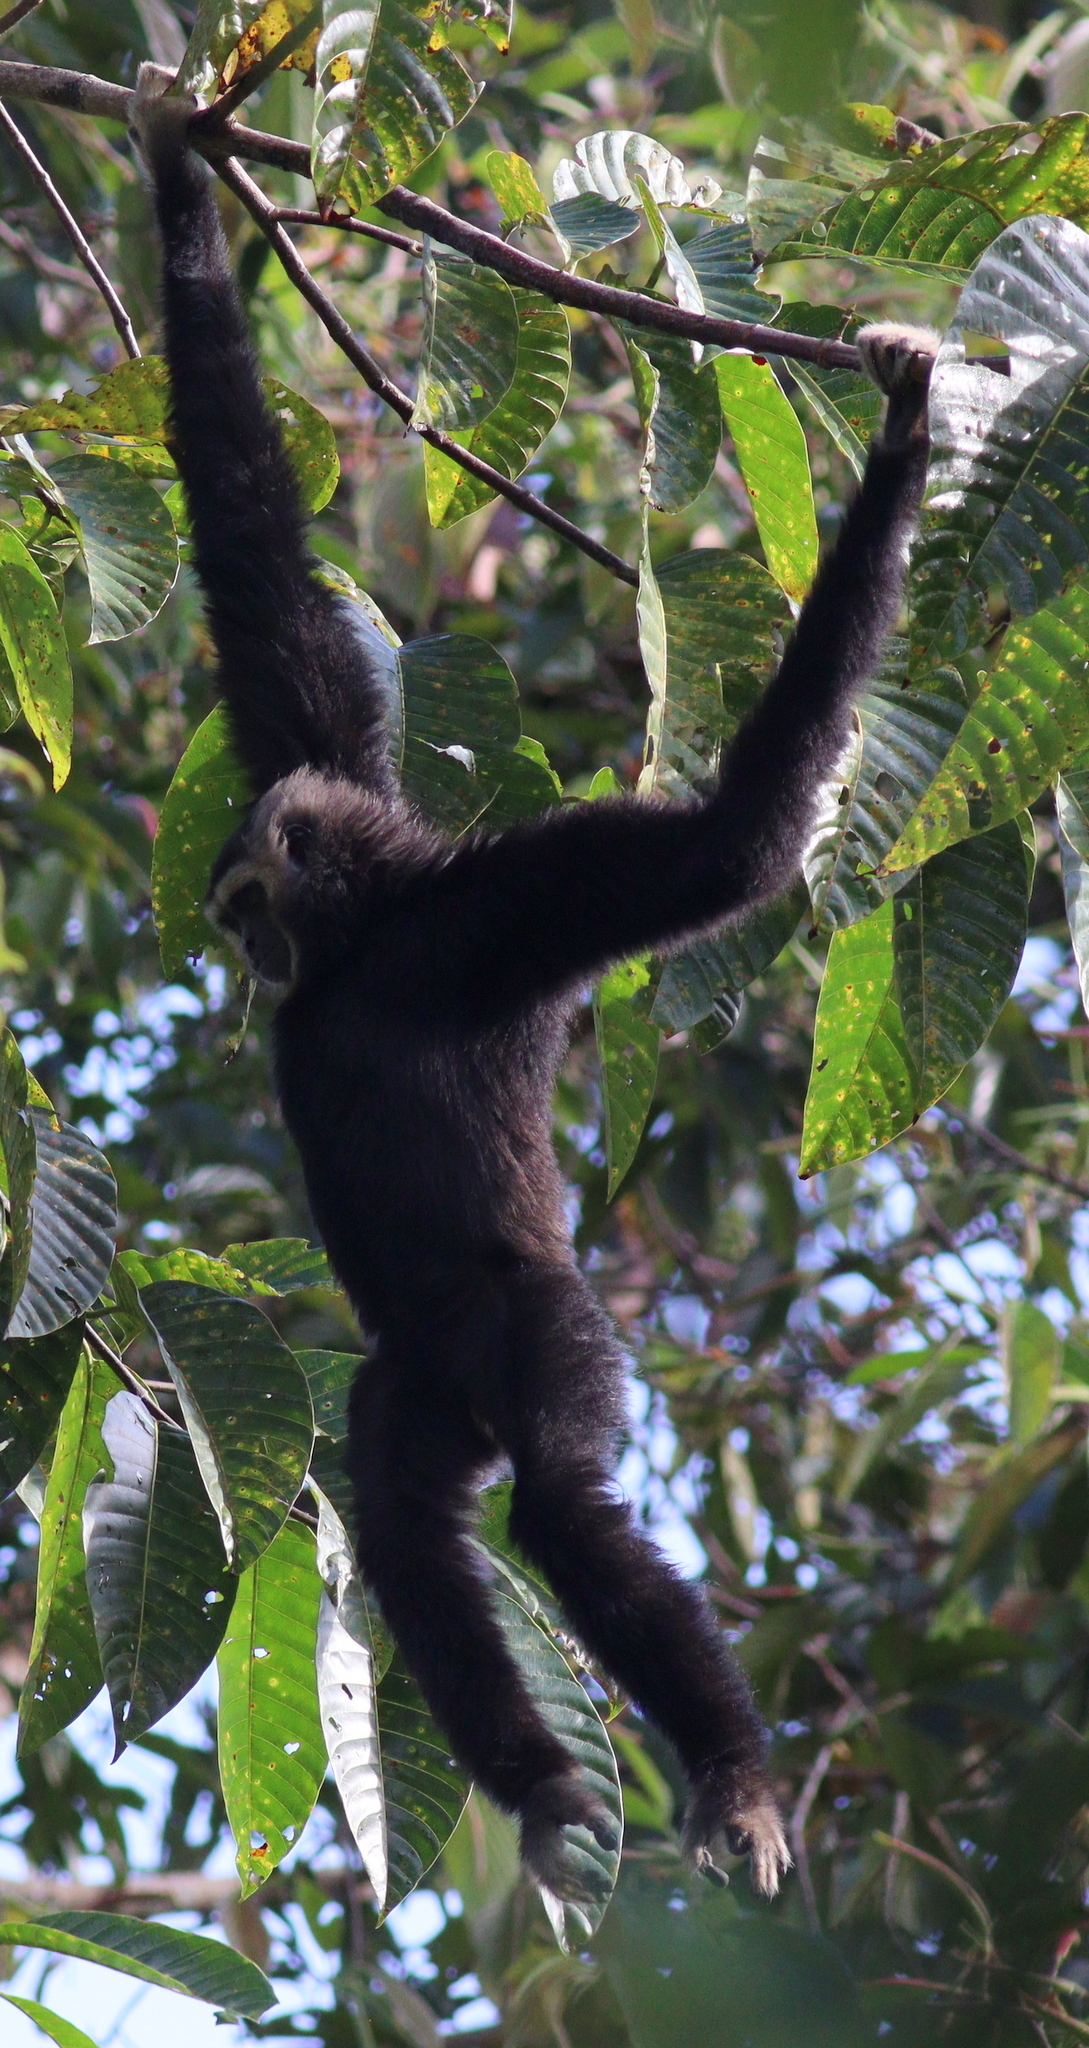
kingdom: Animalia
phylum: Chordata
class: Mammalia
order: Primates
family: Hylobatidae
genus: Hylobates
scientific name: Hylobates lar
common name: Lar gibbon
